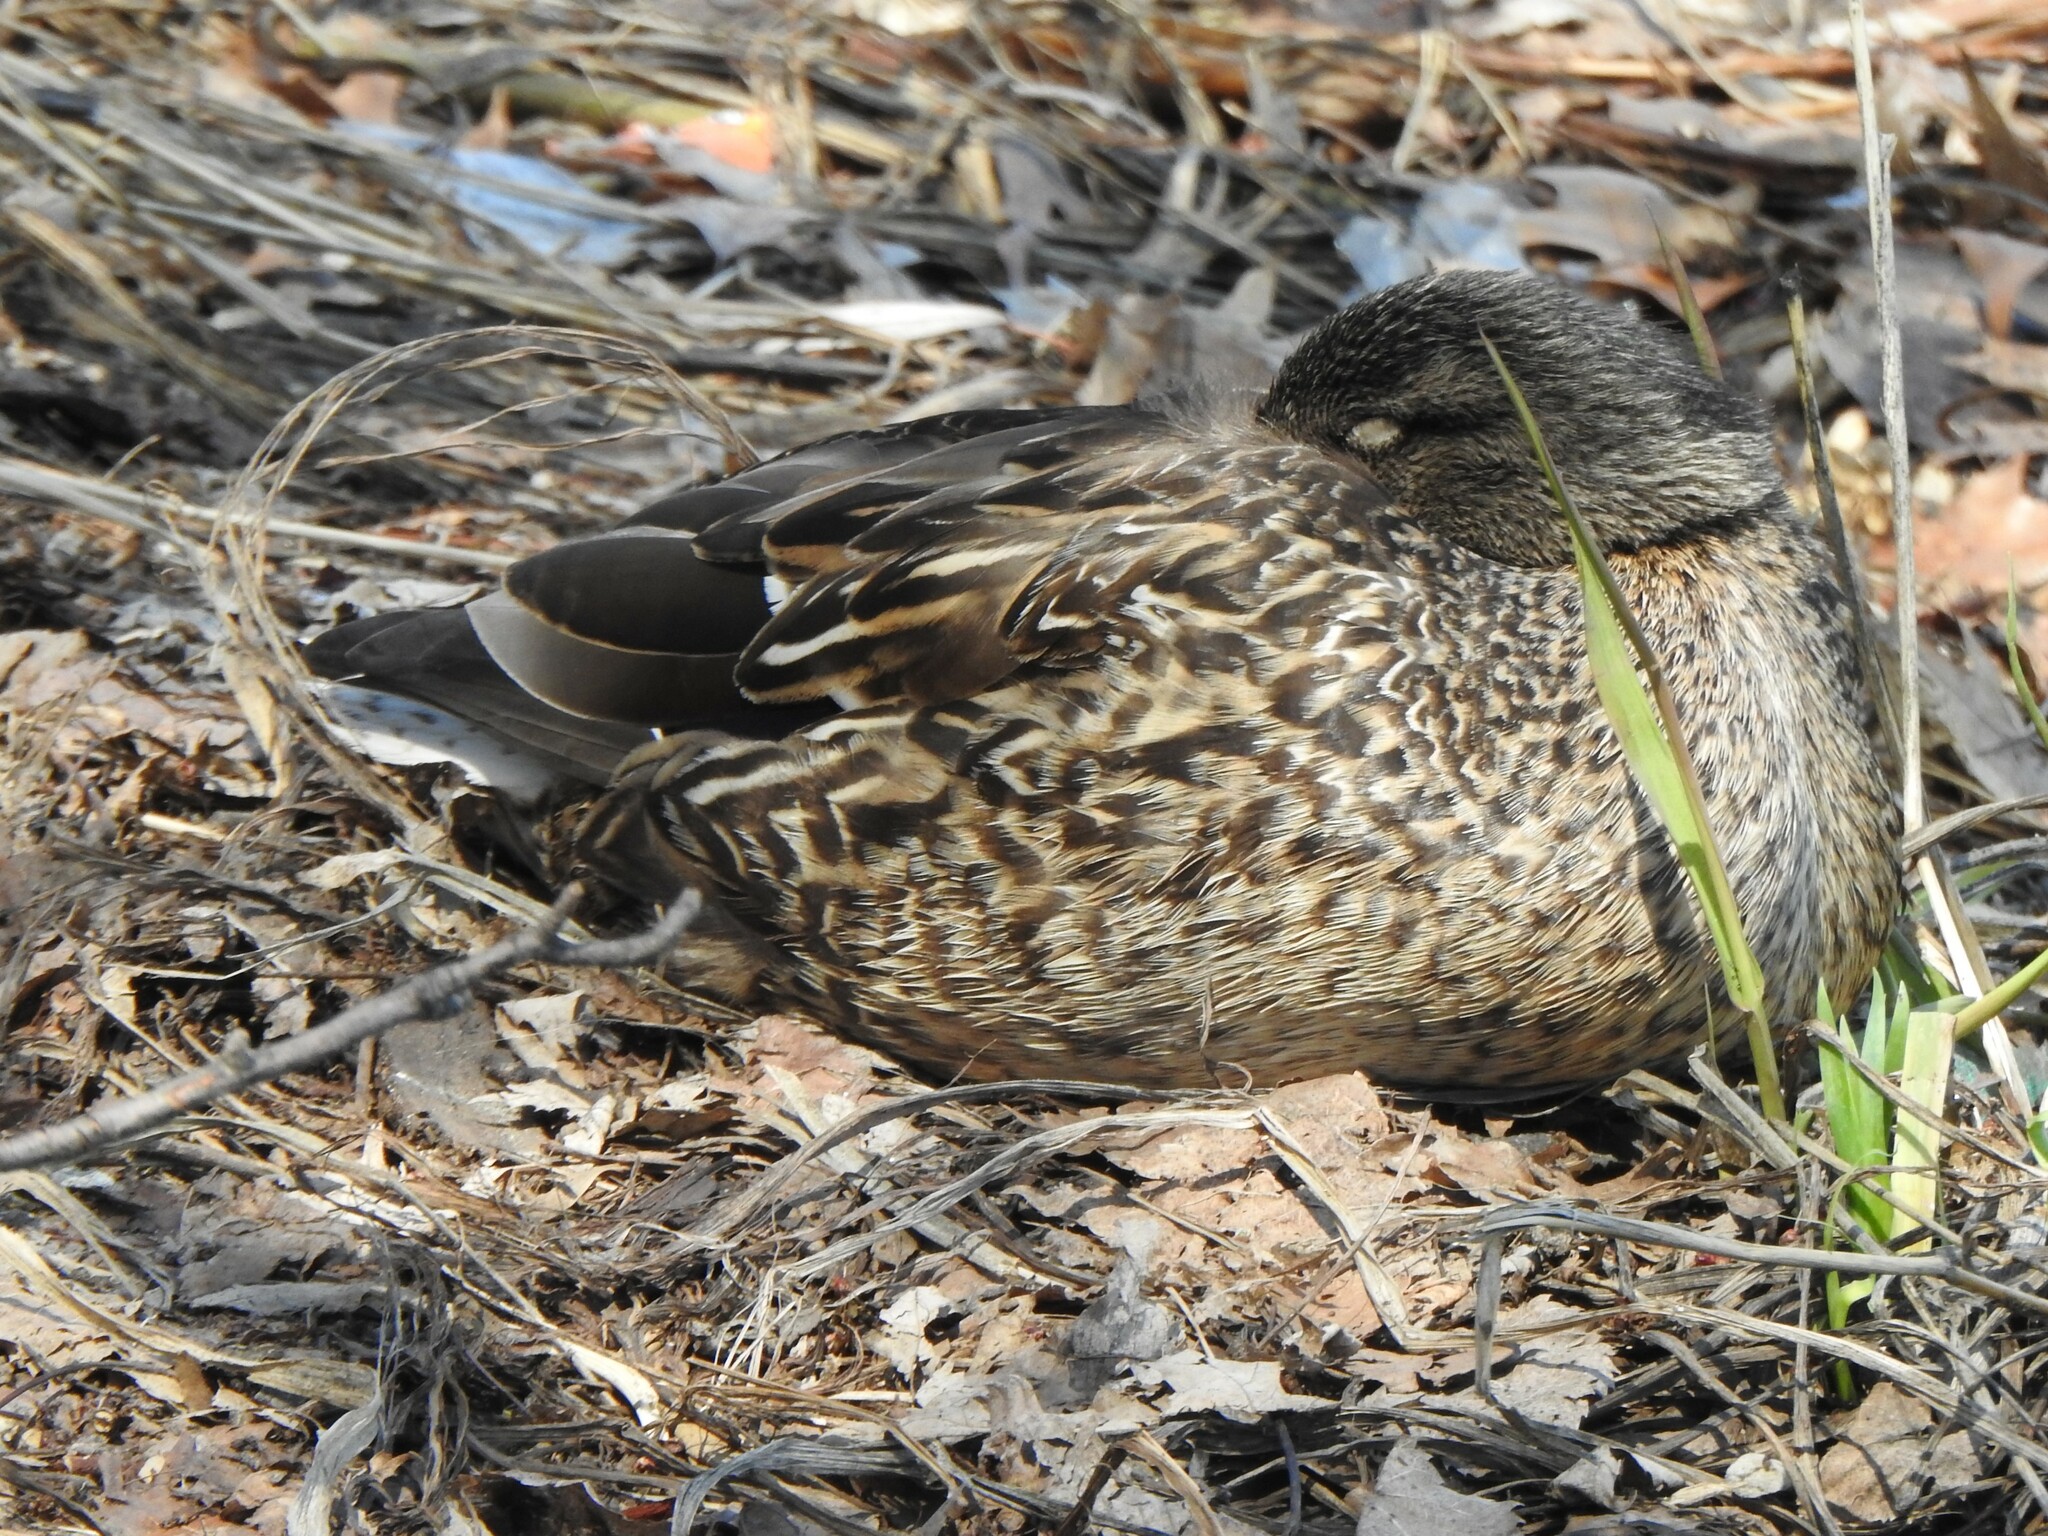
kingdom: Animalia
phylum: Chordata
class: Aves
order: Anseriformes
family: Anatidae
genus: Anas
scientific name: Anas platyrhynchos
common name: Mallard
